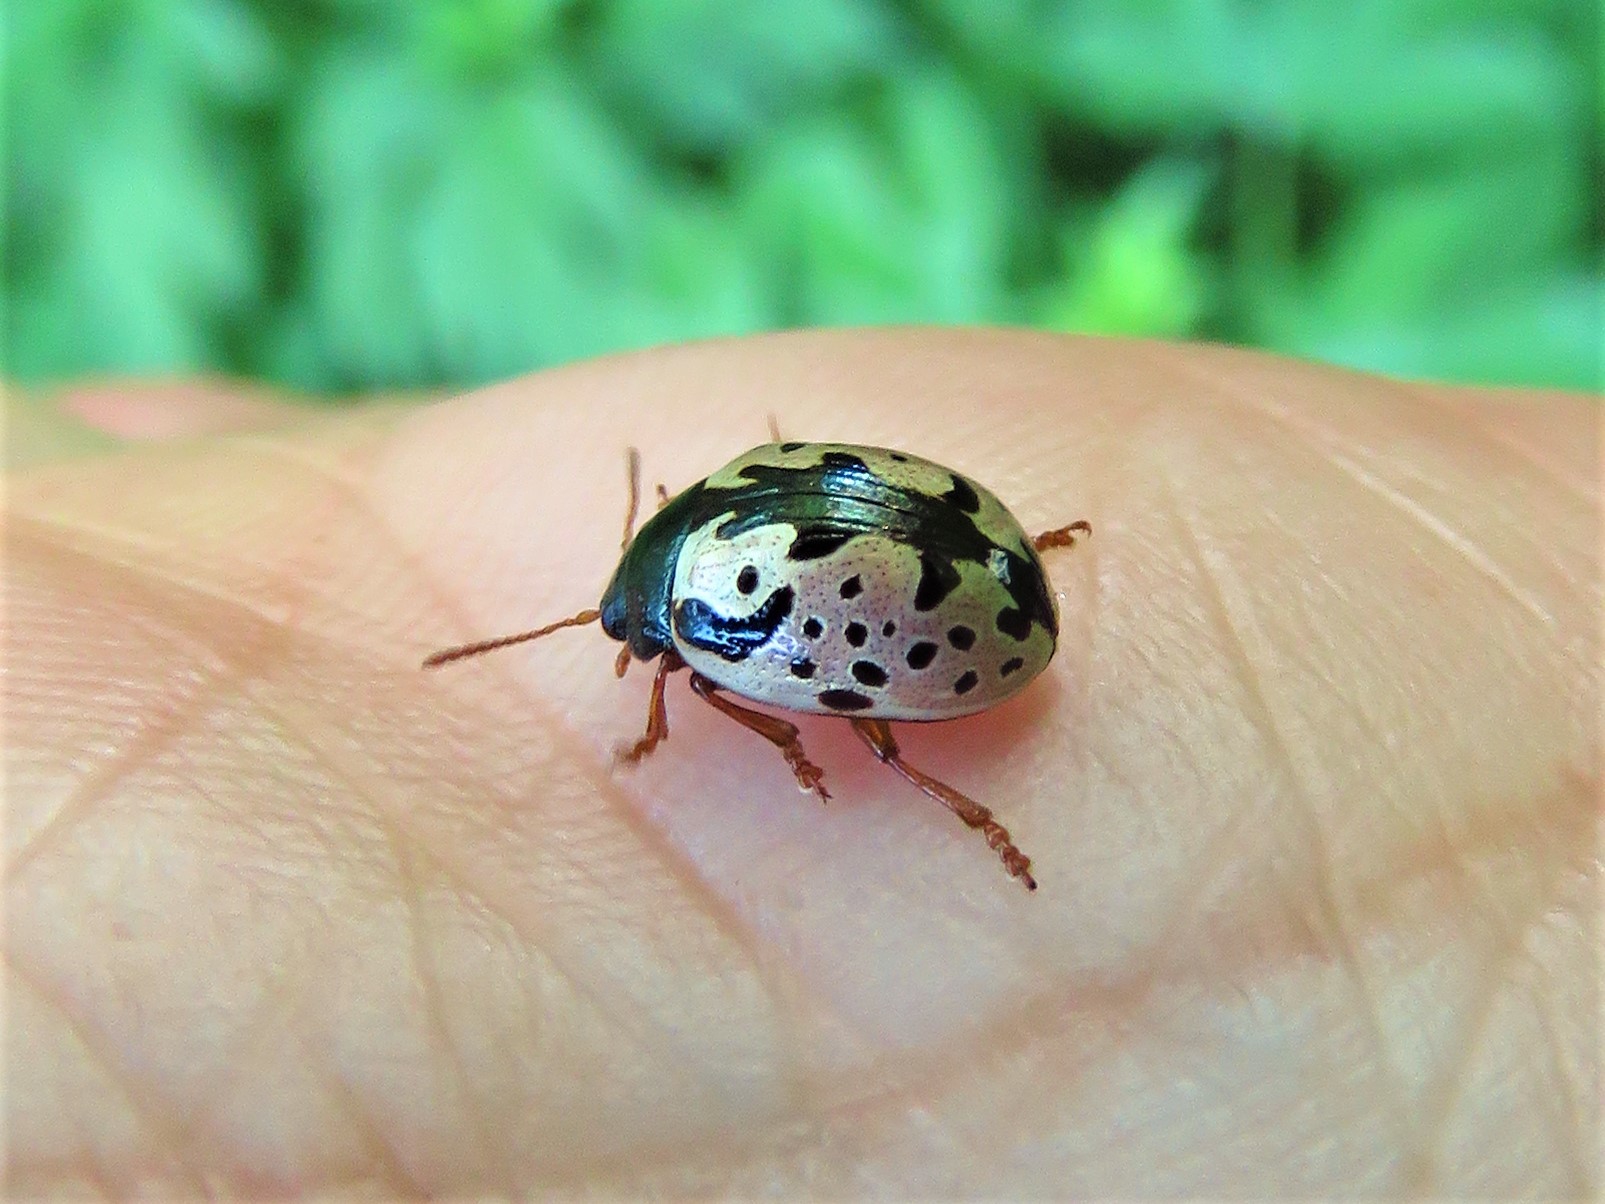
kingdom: Animalia
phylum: Arthropoda
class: Insecta
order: Coleoptera
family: Chrysomelidae
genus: Calligrapha
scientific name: Calligrapha scalaris
